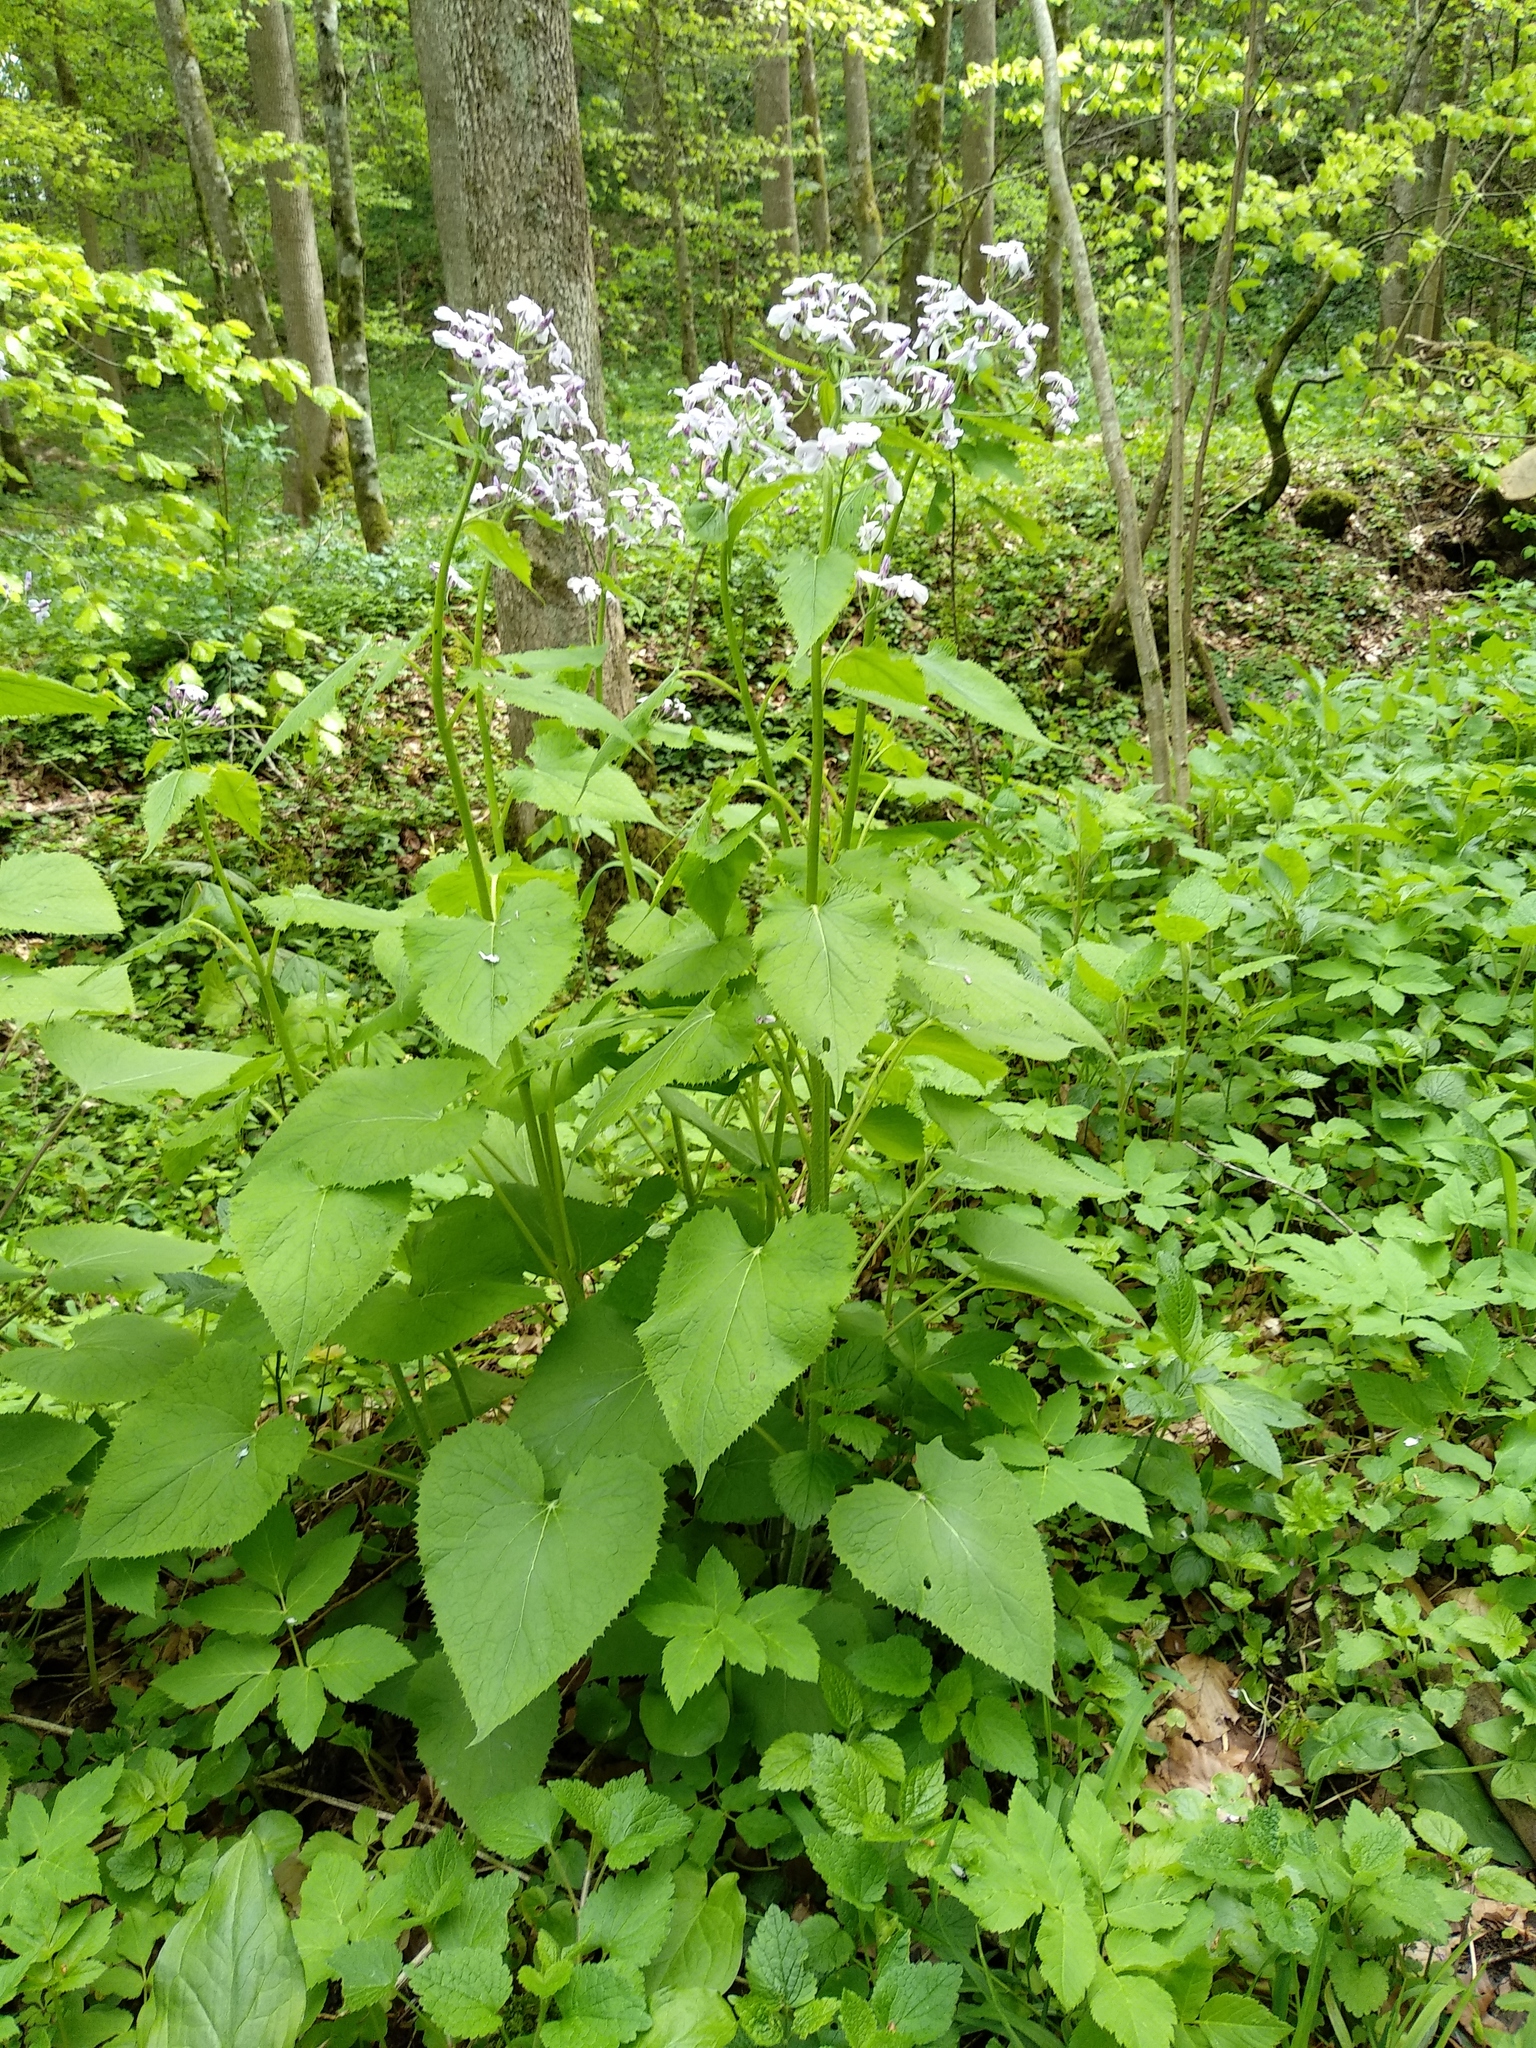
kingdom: Plantae
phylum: Tracheophyta
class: Magnoliopsida
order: Brassicales
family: Brassicaceae
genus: Lunaria
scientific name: Lunaria rediviva
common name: Perennial honesty
